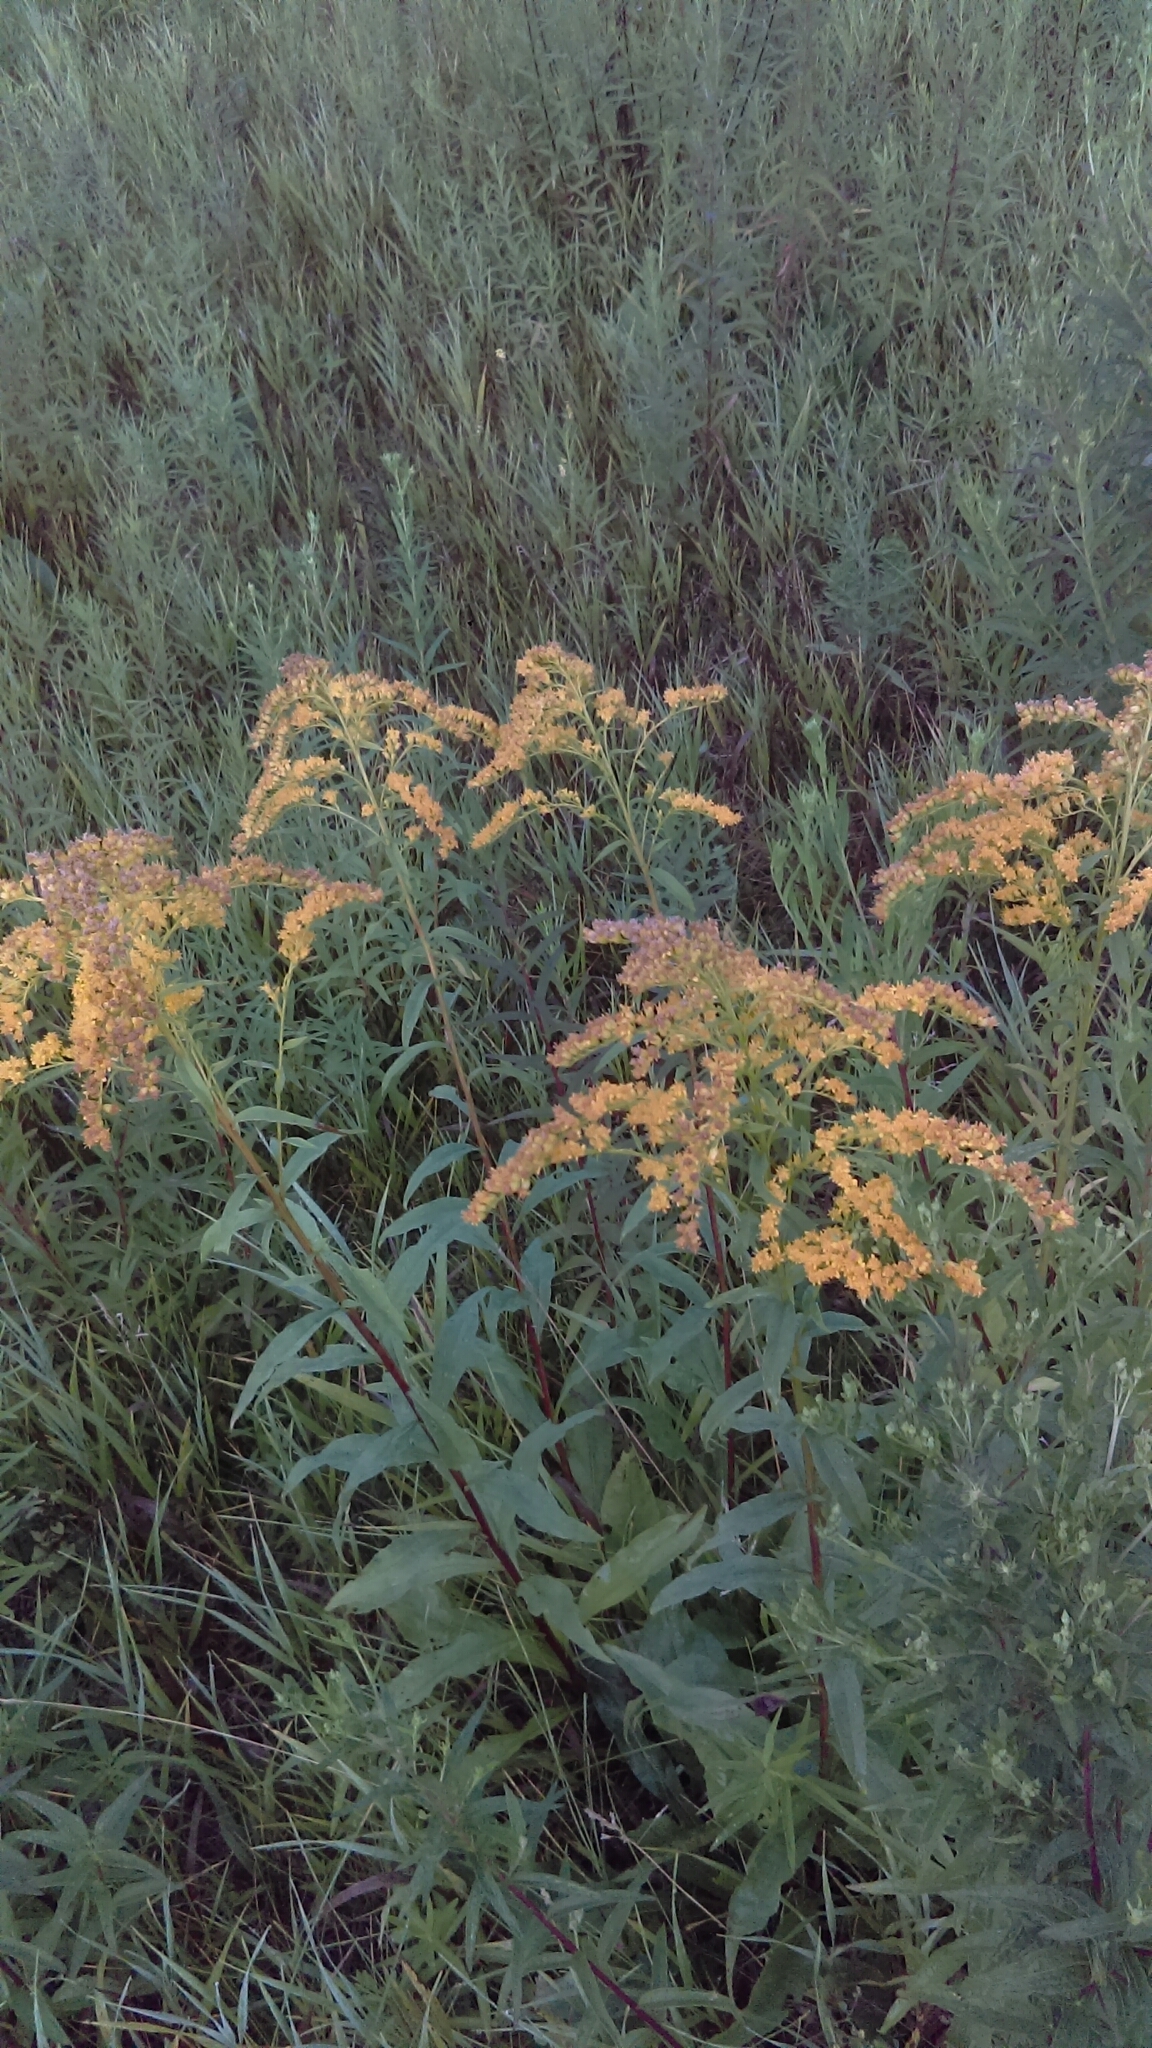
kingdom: Plantae
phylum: Tracheophyta
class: Magnoliopsida
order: Asterales
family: Asteraceae
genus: Solidago
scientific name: Solidago juncea
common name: Early goldenrod
